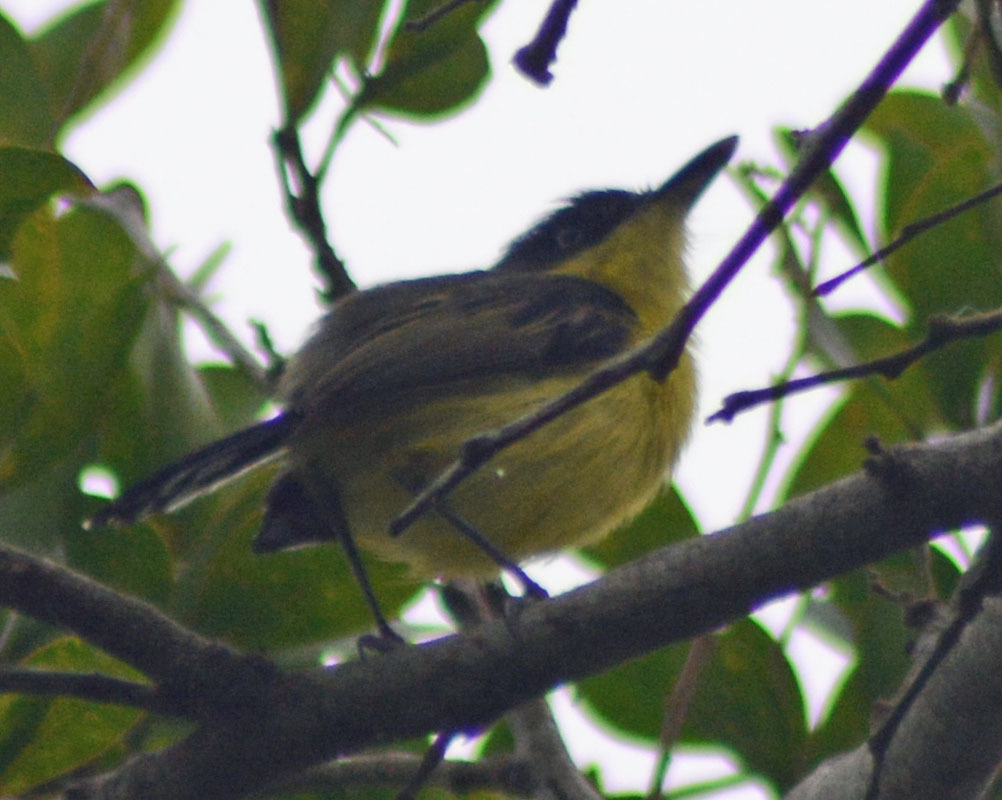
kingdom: Animalia
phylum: Chordata
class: Aves
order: Passeriformes
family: Tyrannidae
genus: Todirostrum
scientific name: Todirostrum cinereum
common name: Common tody-flycatcher
